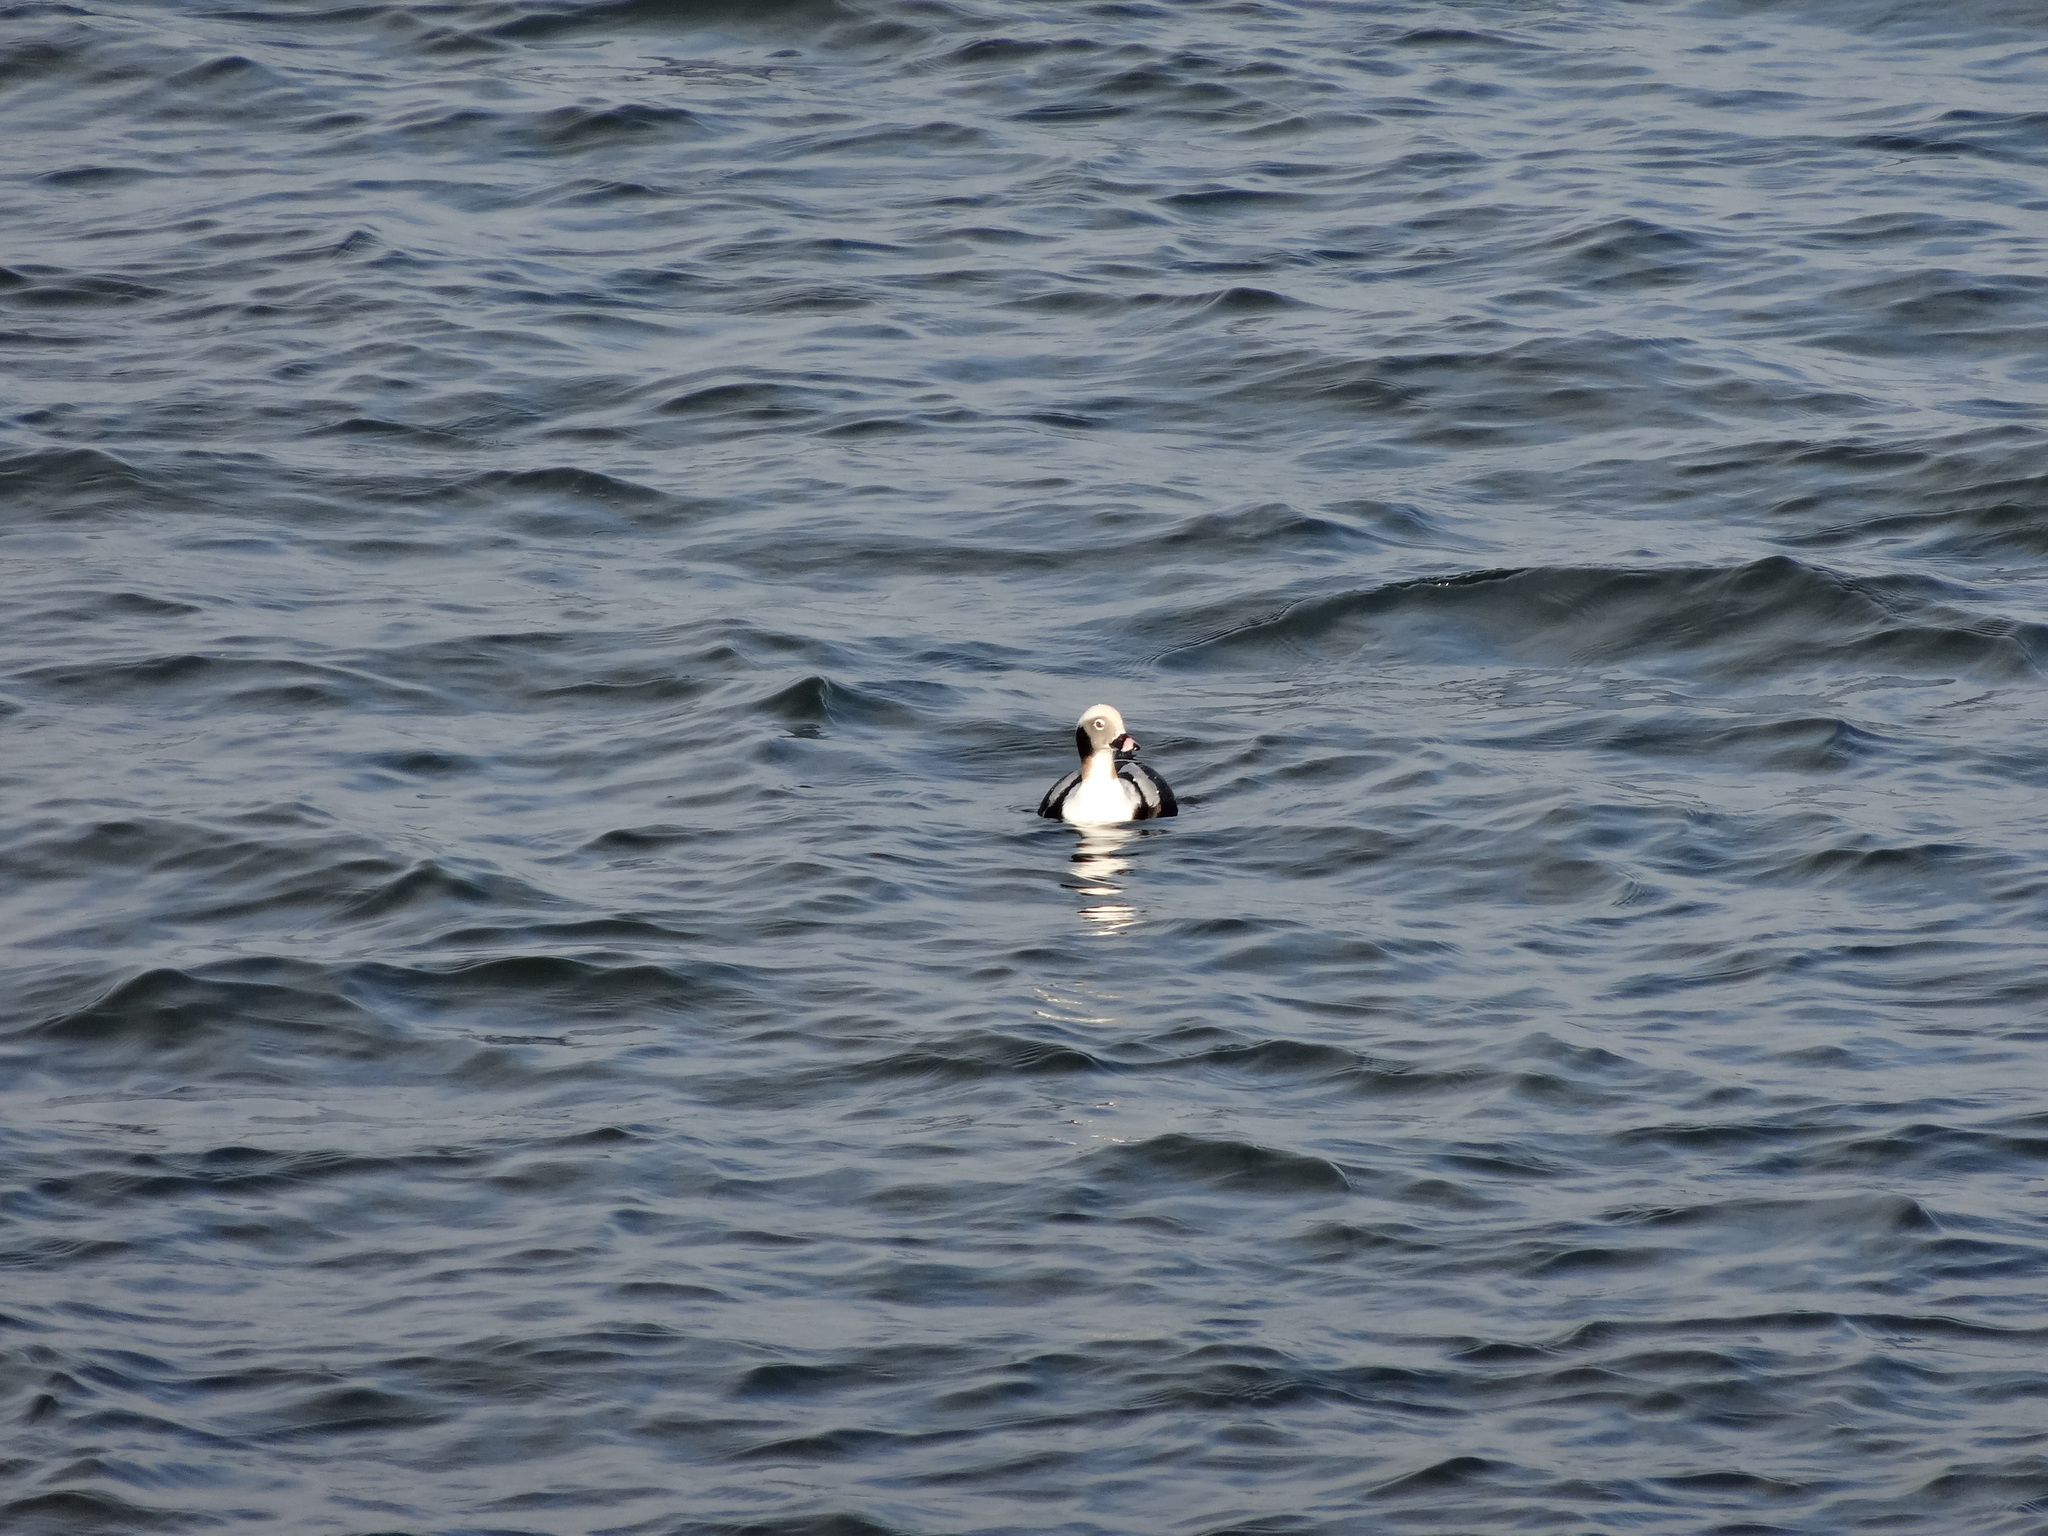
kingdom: Animalia
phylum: Chordata
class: Aves
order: Anseriformes
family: Anatidae
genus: Clangula
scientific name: Clangula hyemalis
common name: Long-tailed duck
